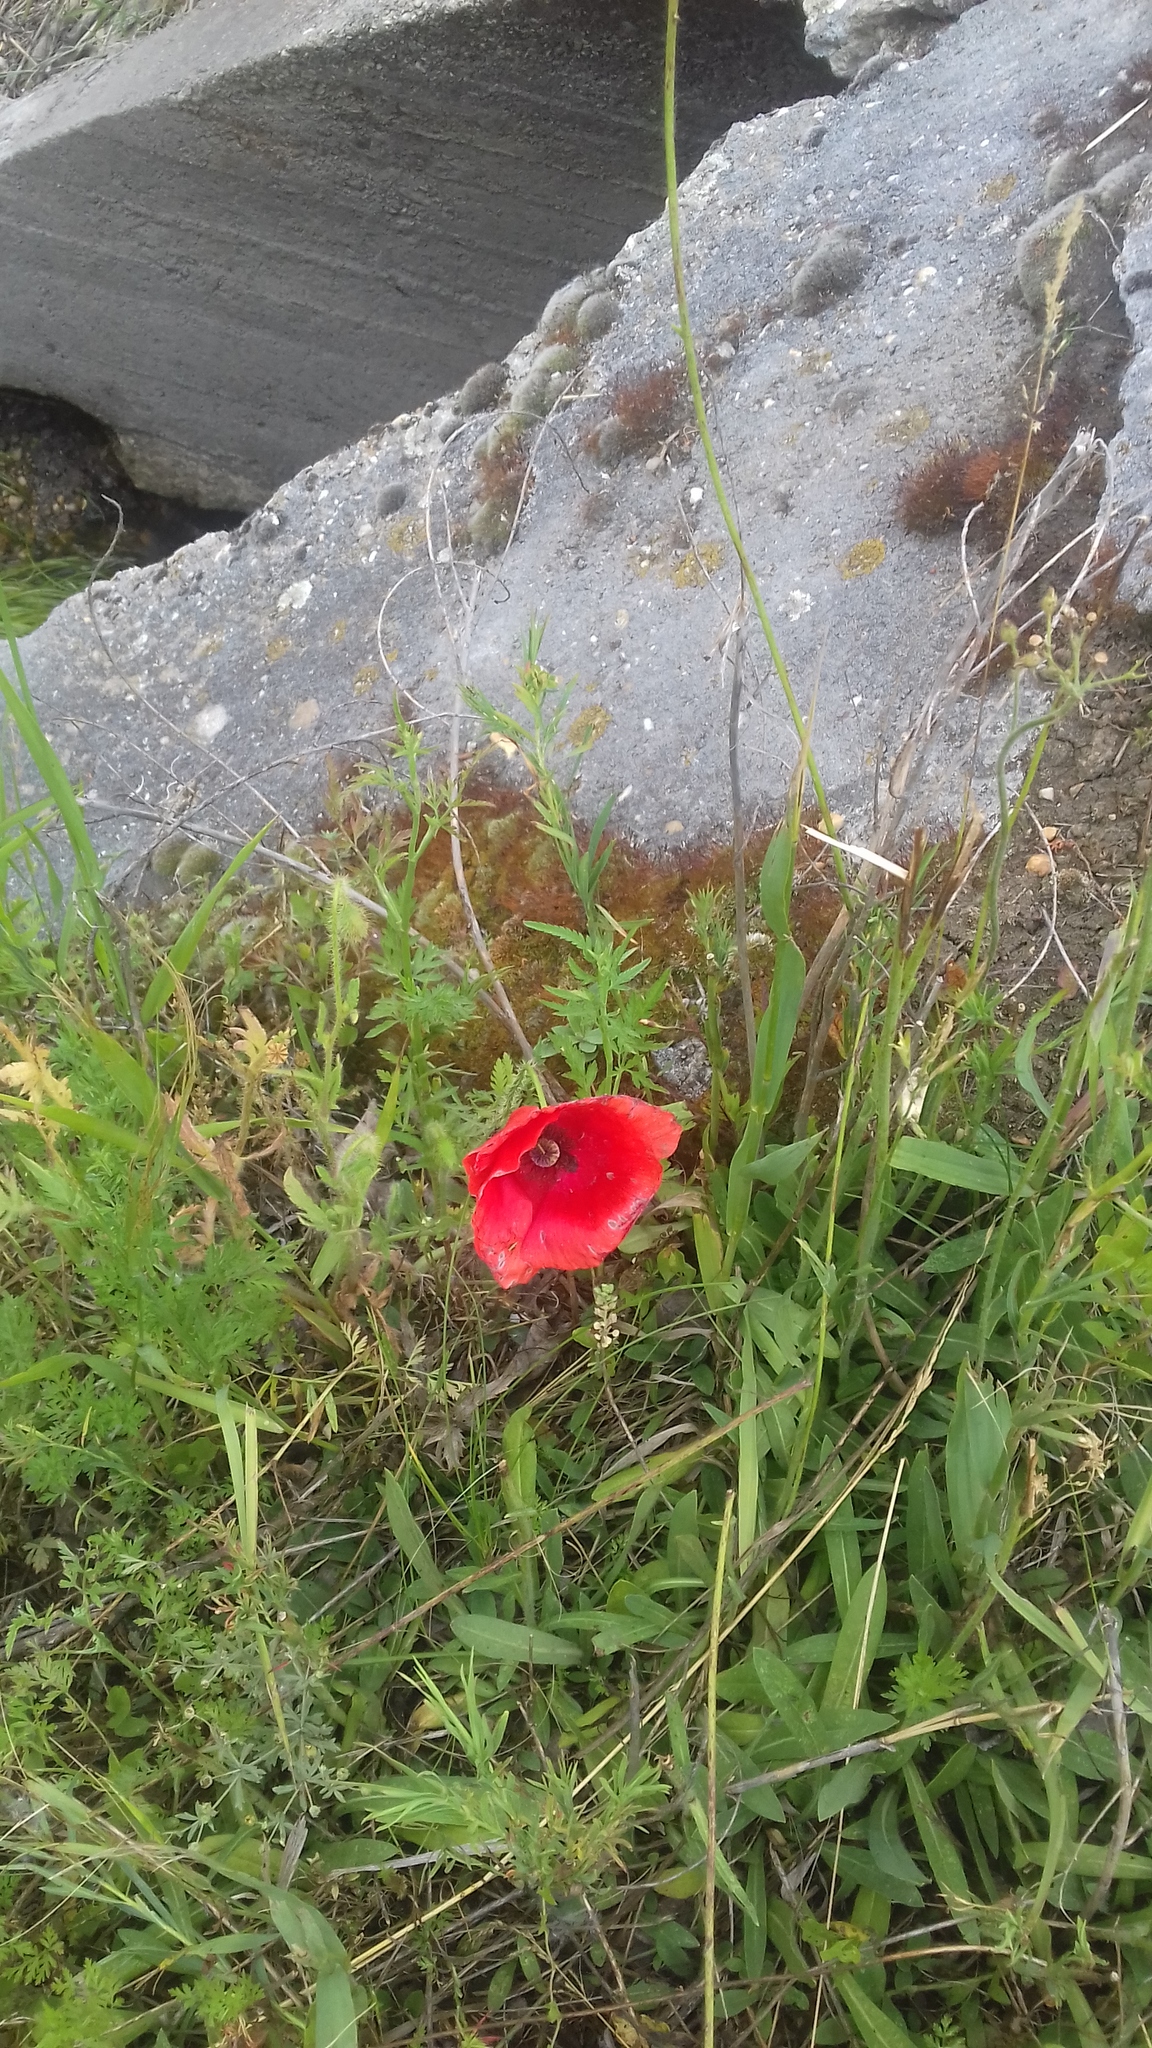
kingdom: Plantae
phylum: Tracheophyta
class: Magnoliopsida
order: Ranunculales
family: Papaveraceae
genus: Papaver
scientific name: Papaver rhoeas
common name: Corn poppy
